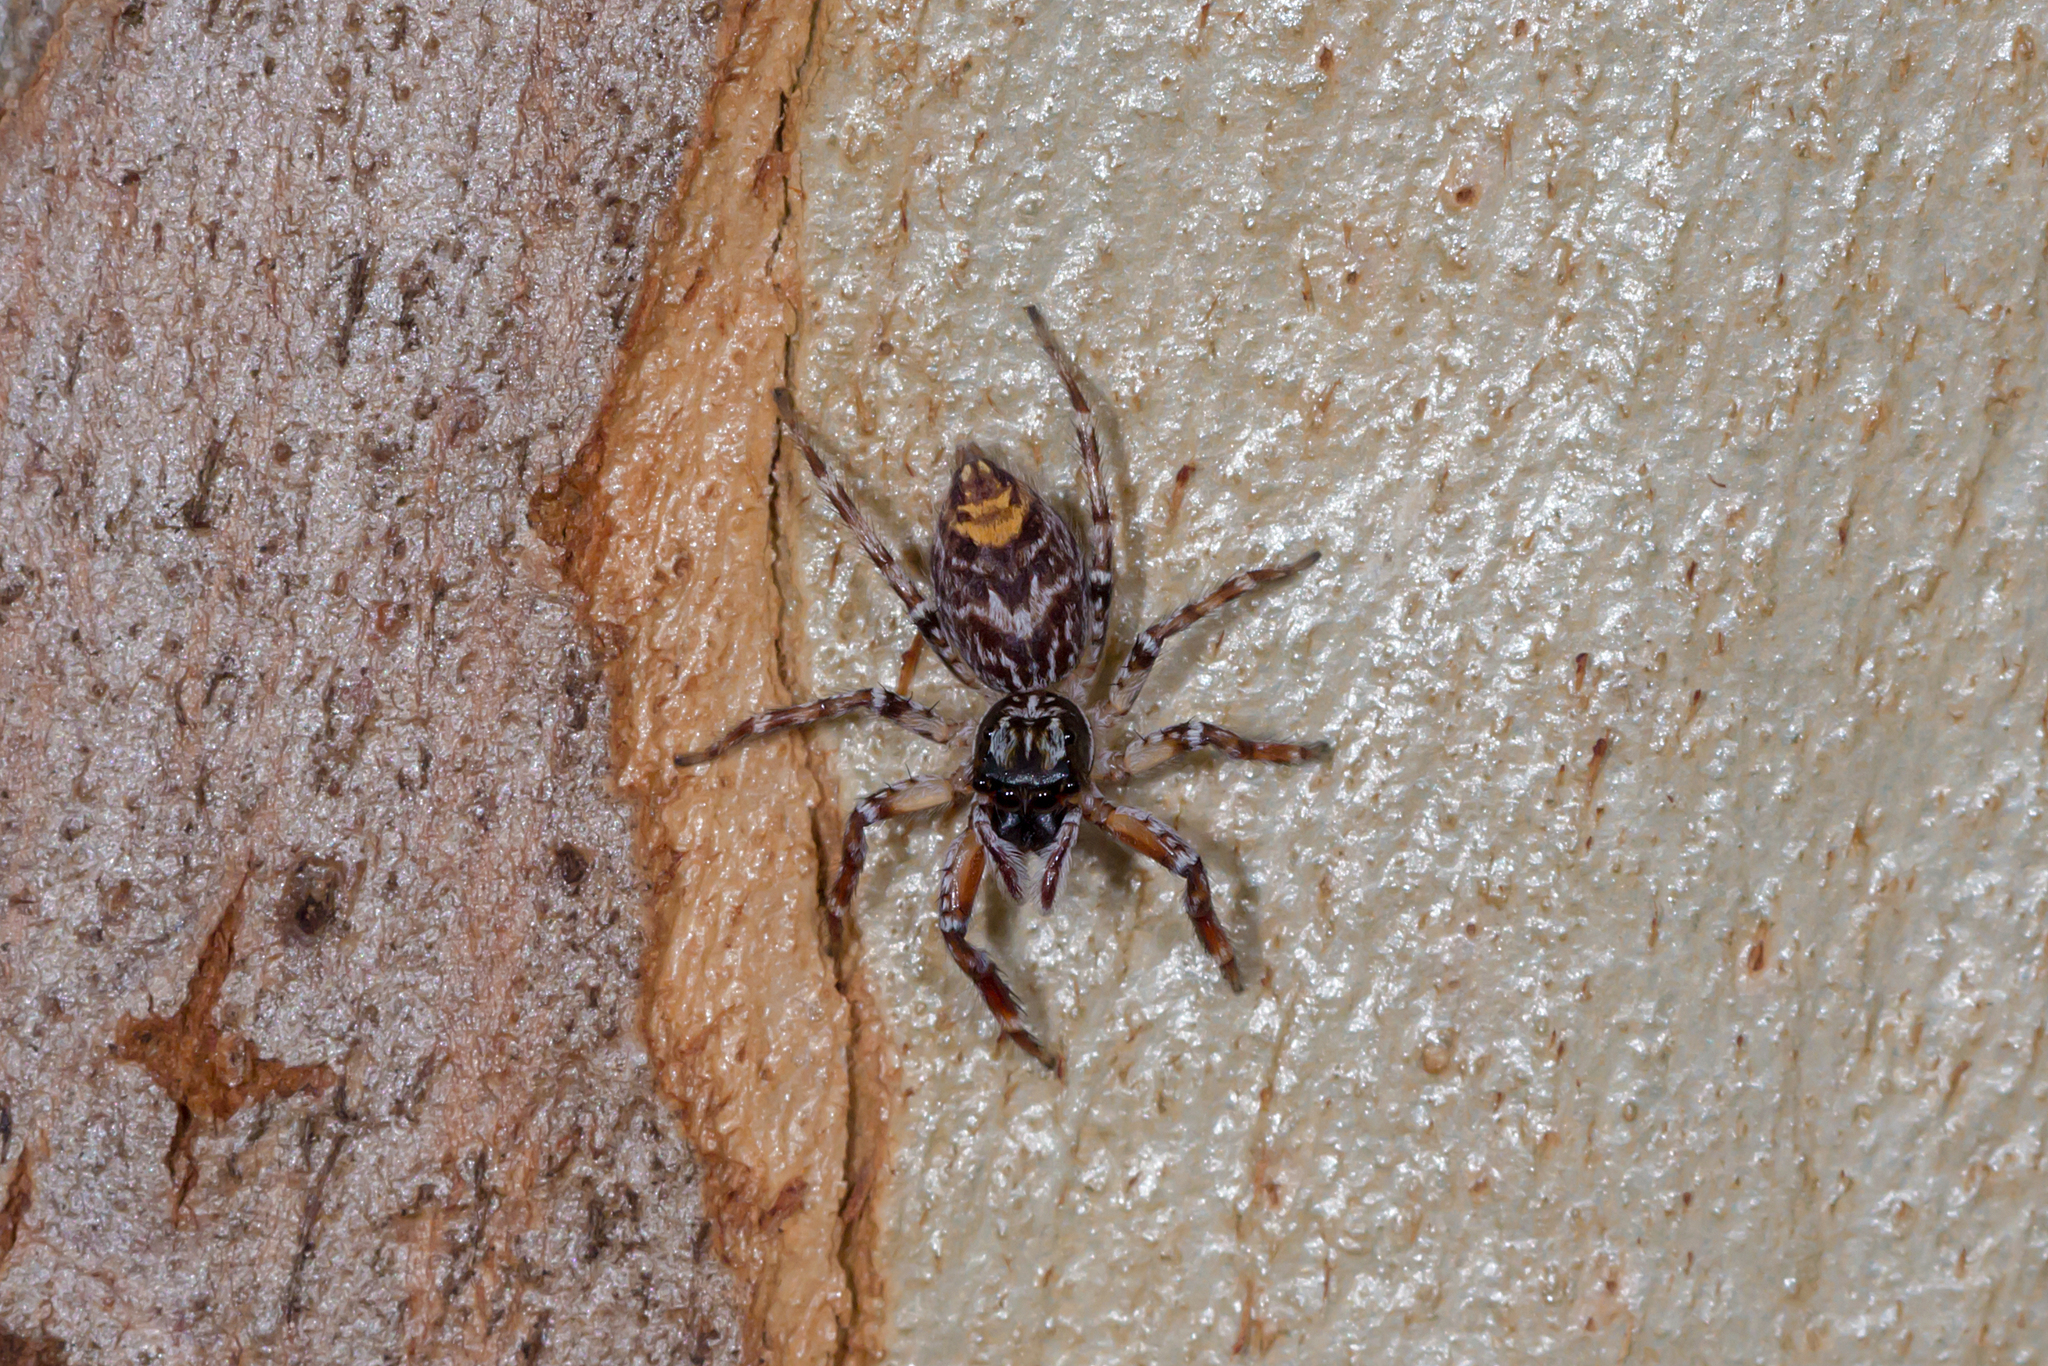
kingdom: Animalia
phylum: Arthropoda
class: Arachnida
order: Araneae
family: Salticidae
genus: Astia
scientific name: Astia
